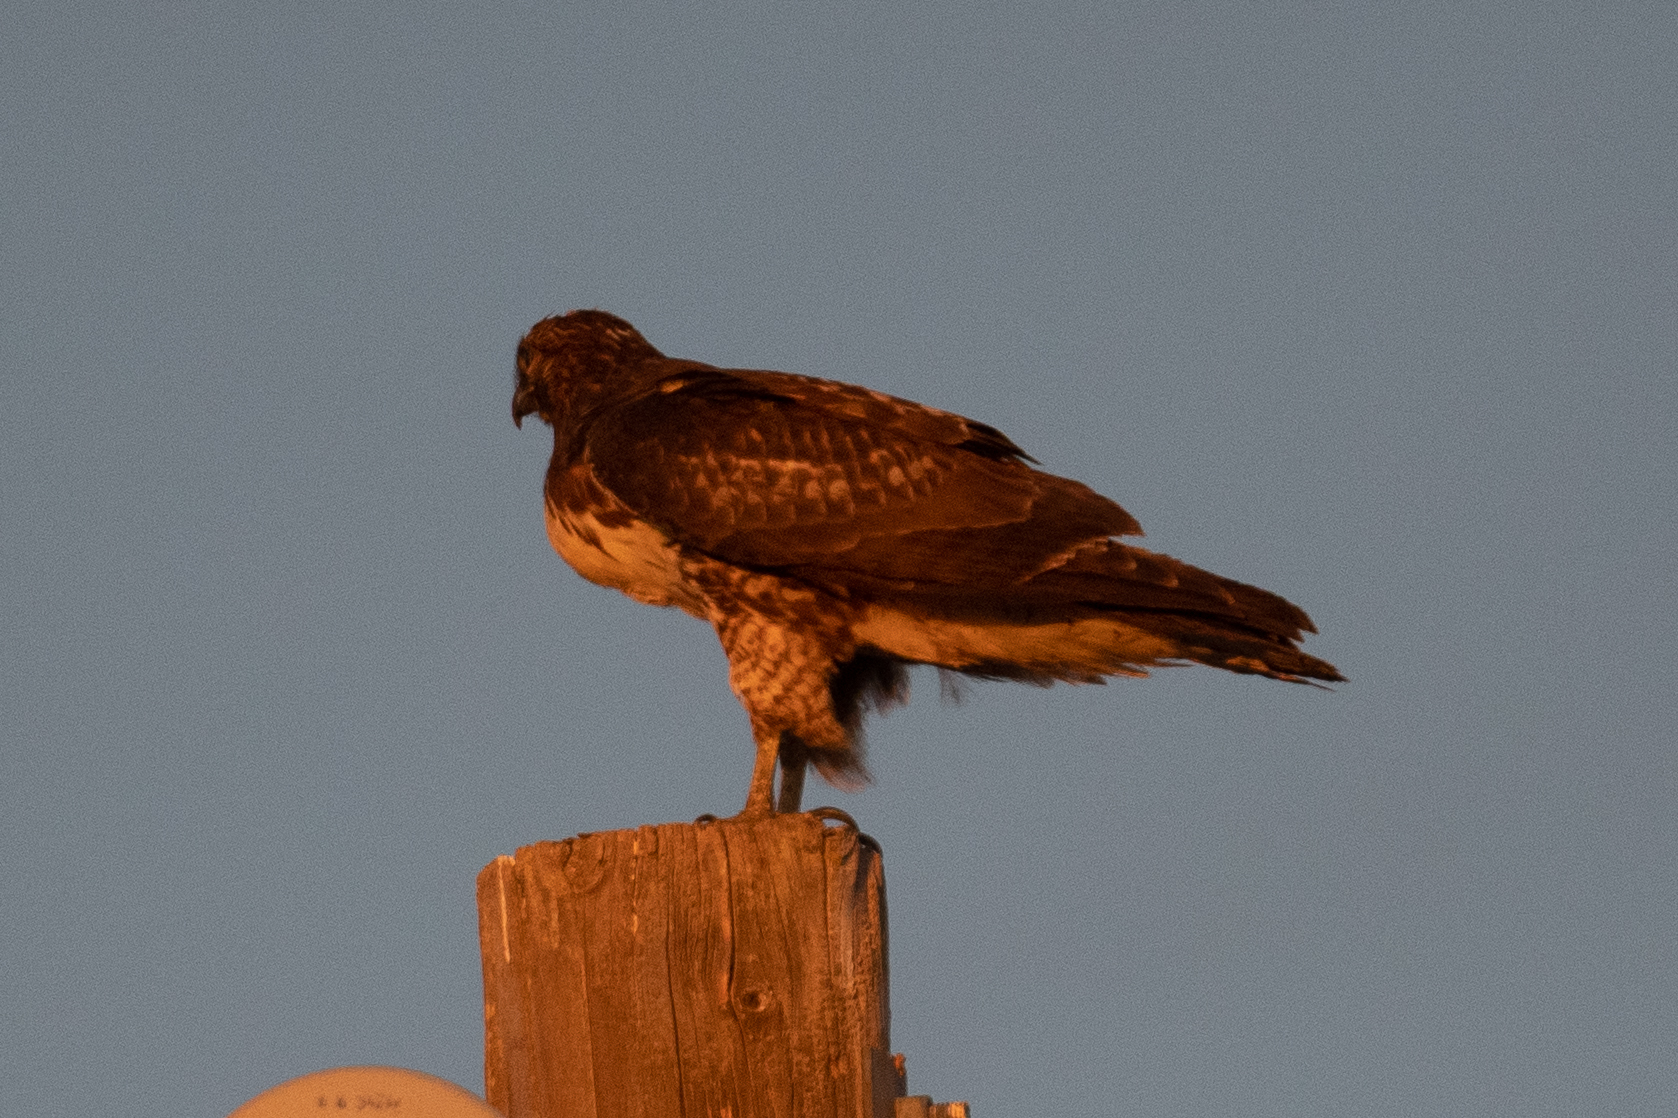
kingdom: Animalia
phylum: Chordata
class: Aves
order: Accipitriformes
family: Accipitridae
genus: Buteo
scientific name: Buteo jamaicensis
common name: Red-tailed hawk
